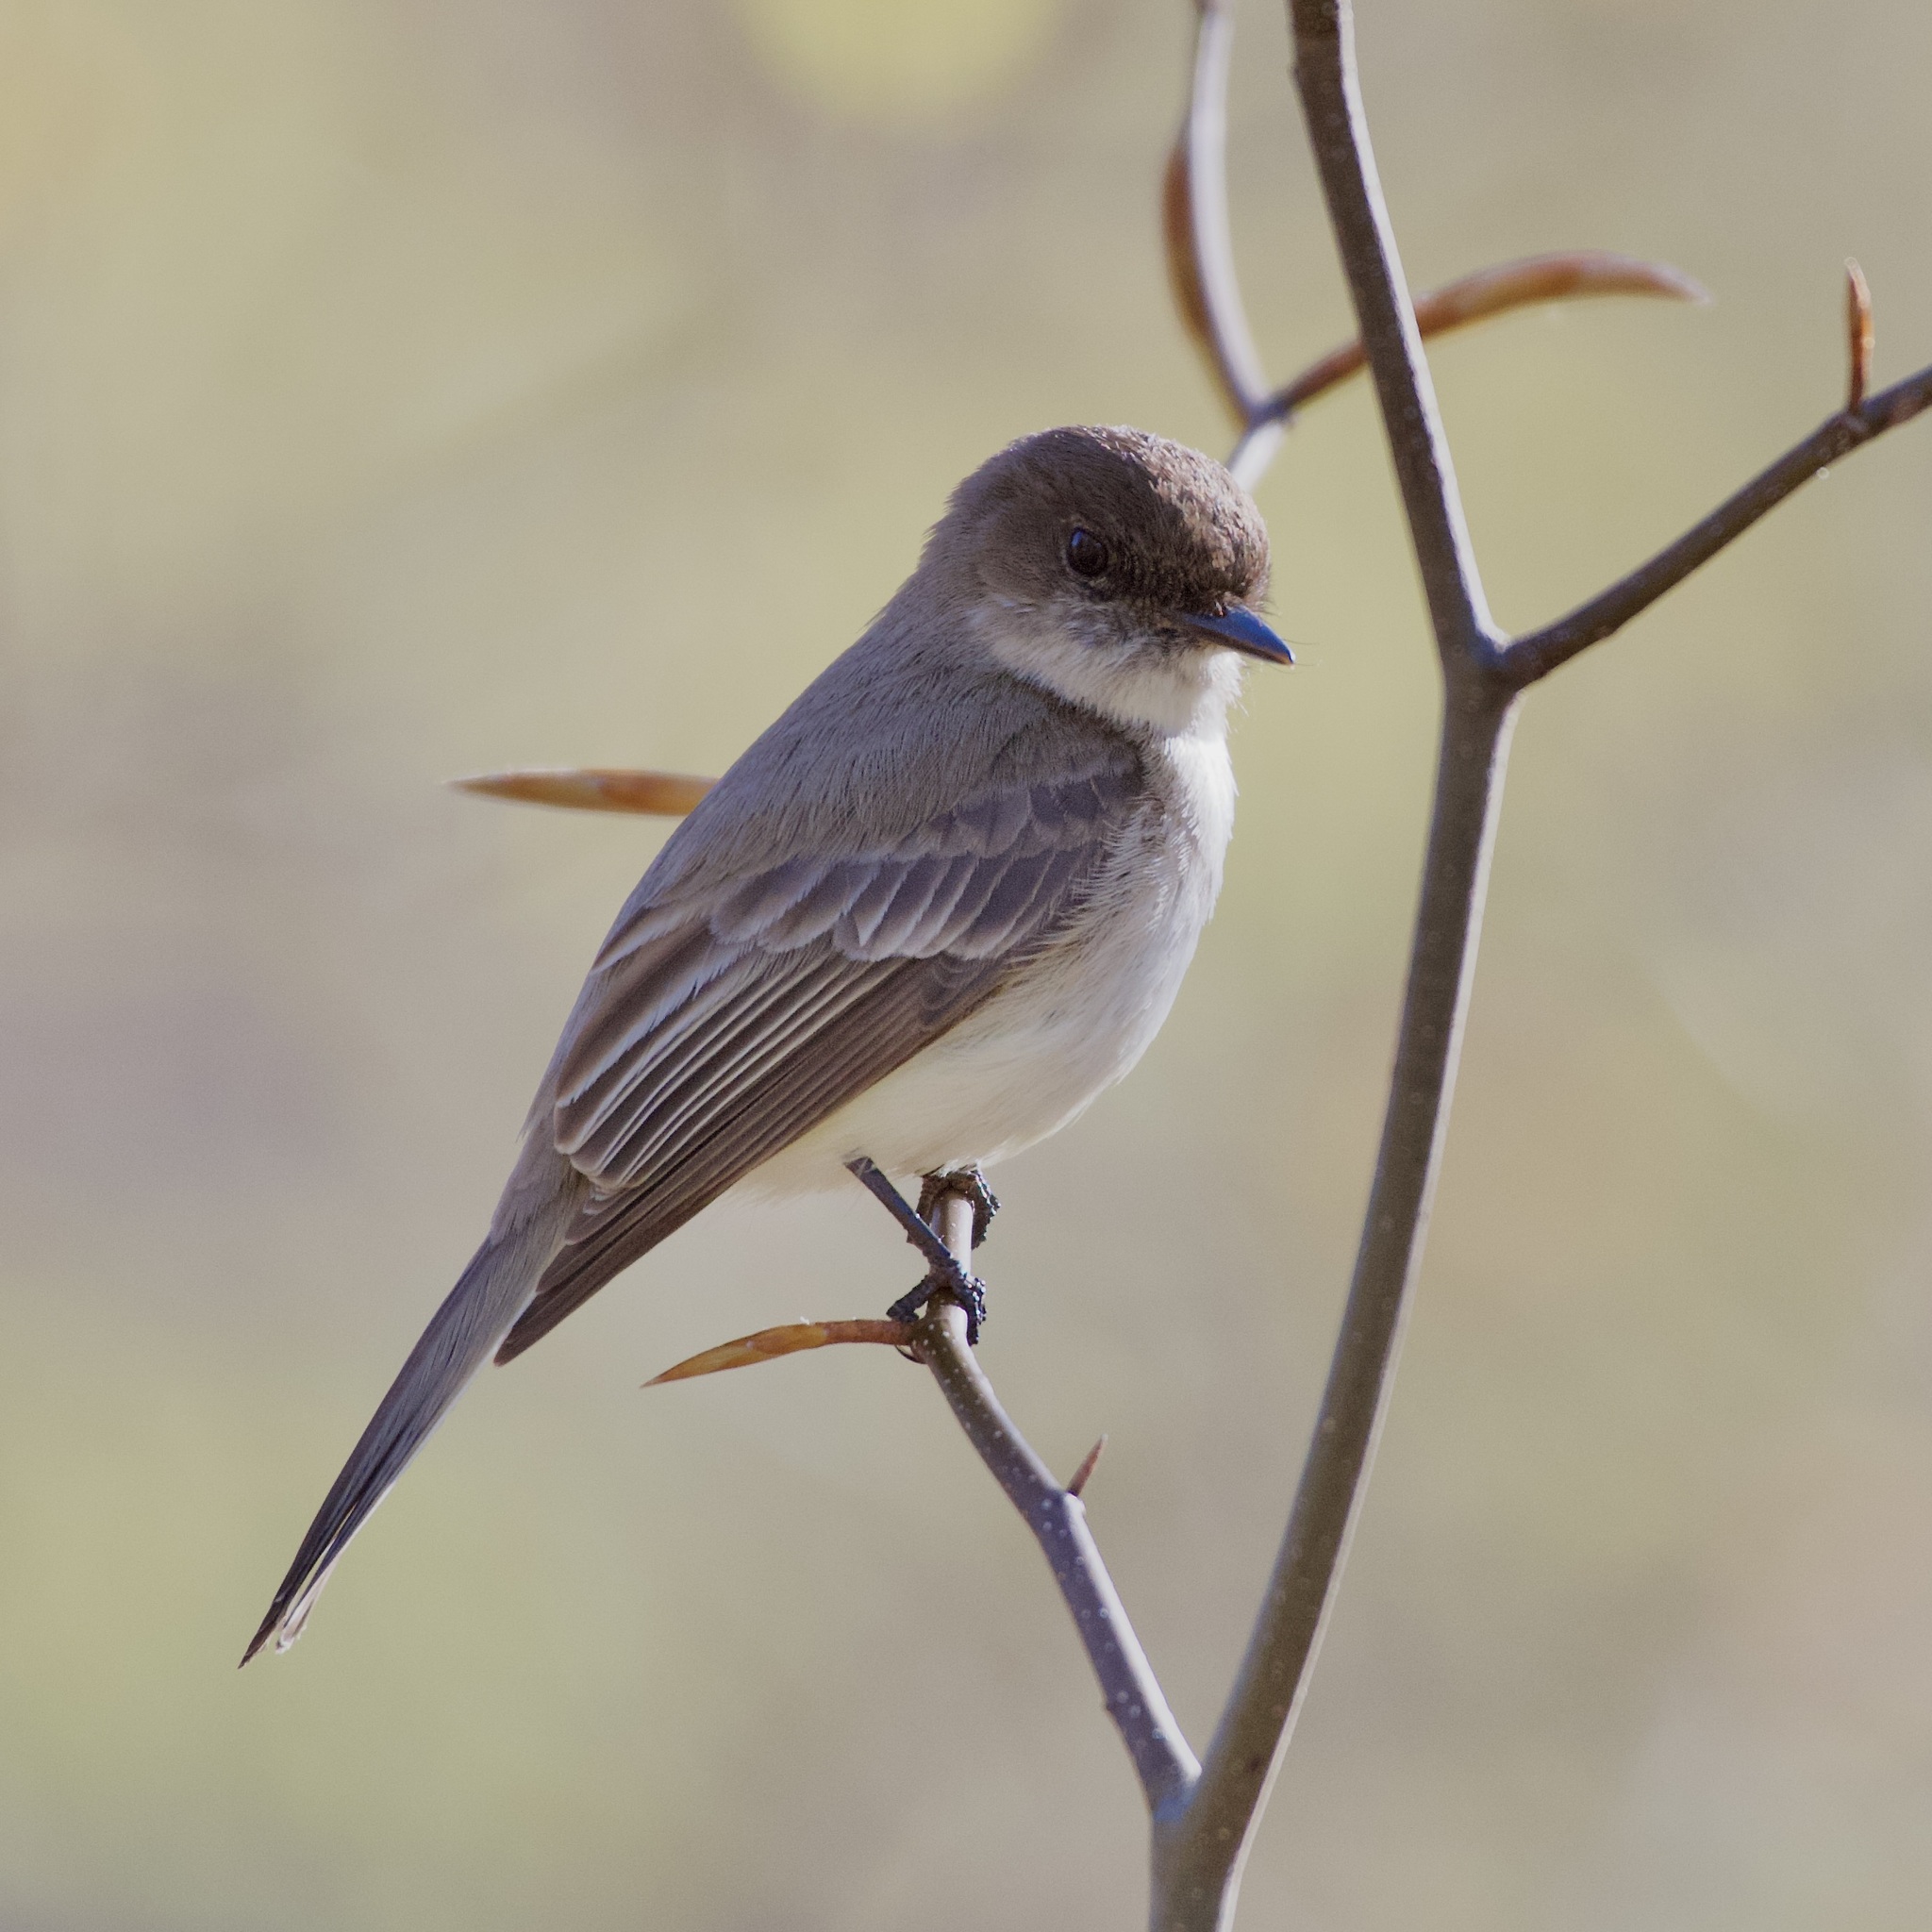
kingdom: Animalia
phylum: Chordata
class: Aves
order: Passeriformes
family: Tyrannidae
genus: Sayornis
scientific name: Sayornis phoebe
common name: Eastern phoebe
